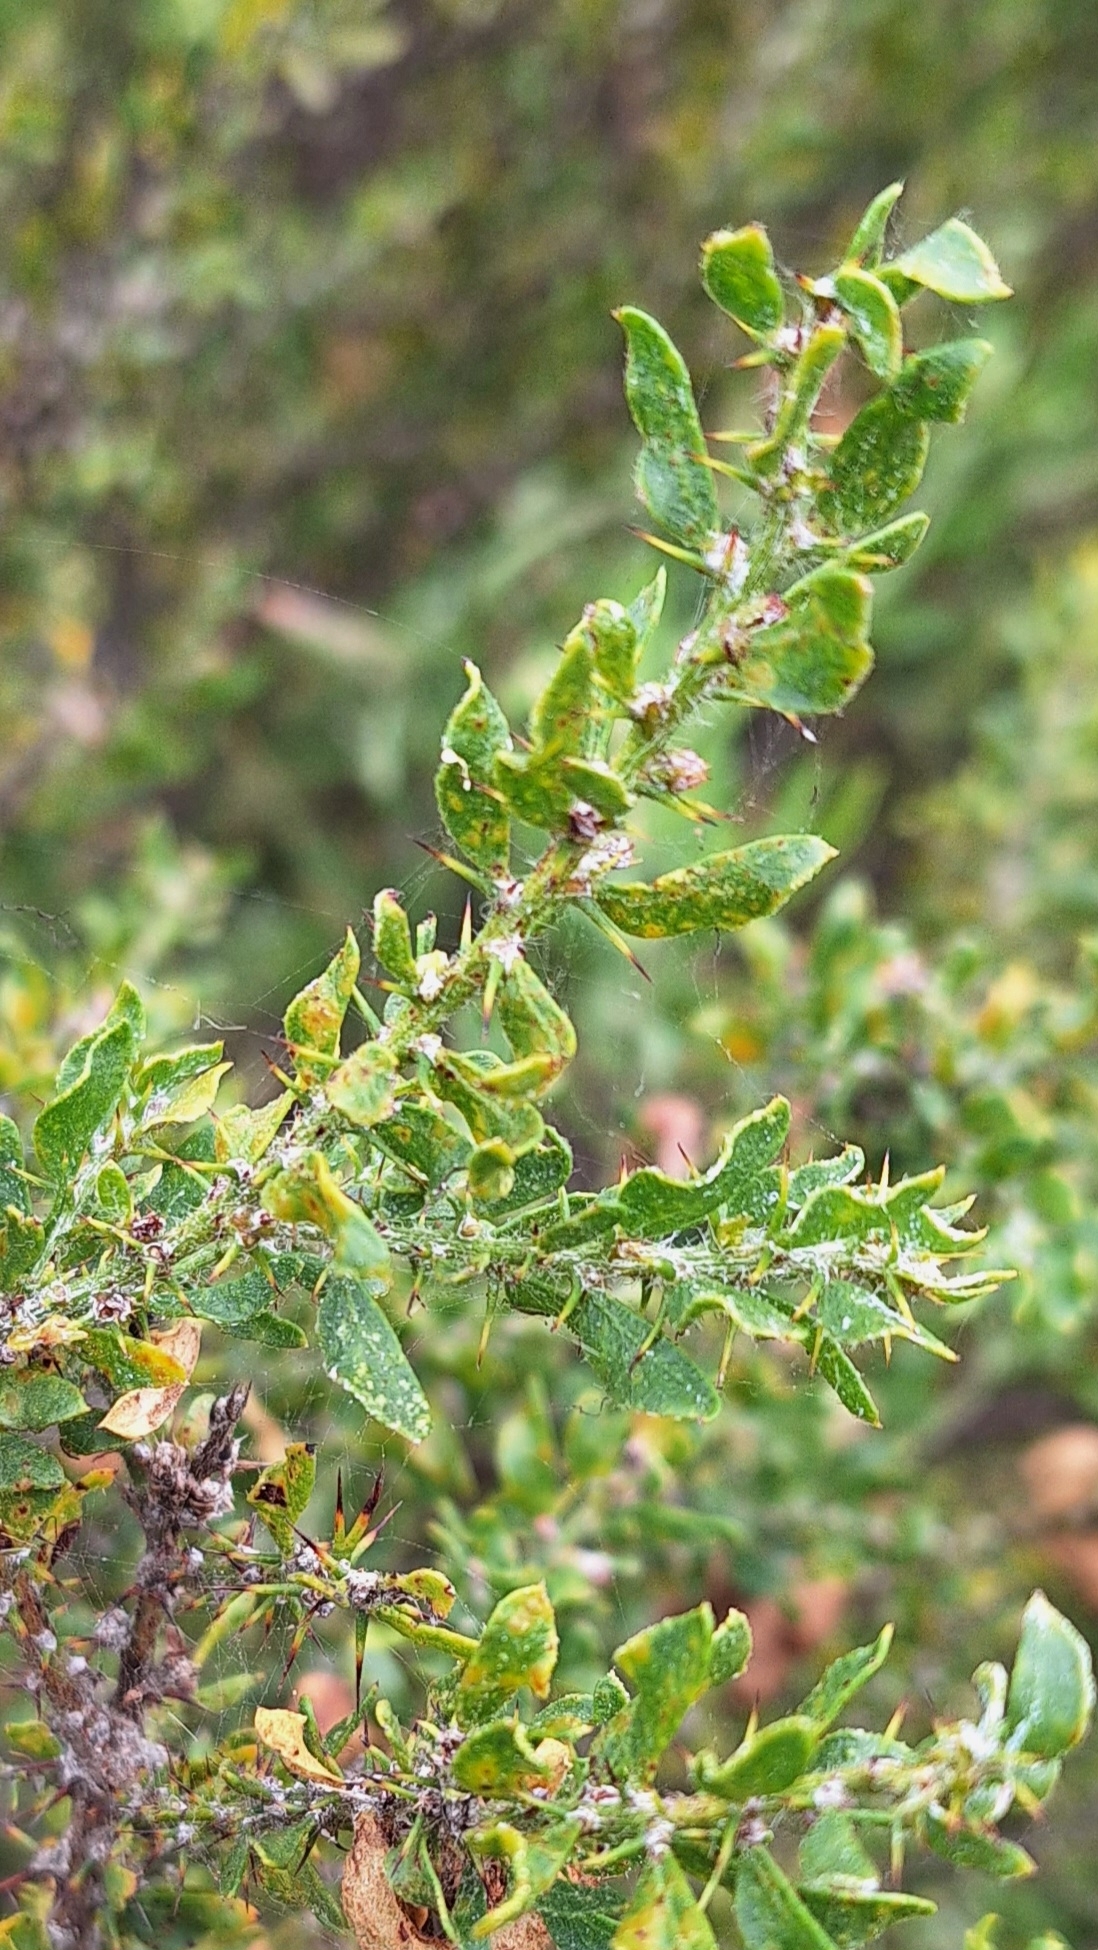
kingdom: Plantae
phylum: Tracheophyta
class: Magnoliopsida
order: Fabales
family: Fabaceae
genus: Acacia
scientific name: Acacia paradoxa
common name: Paradox acacia
